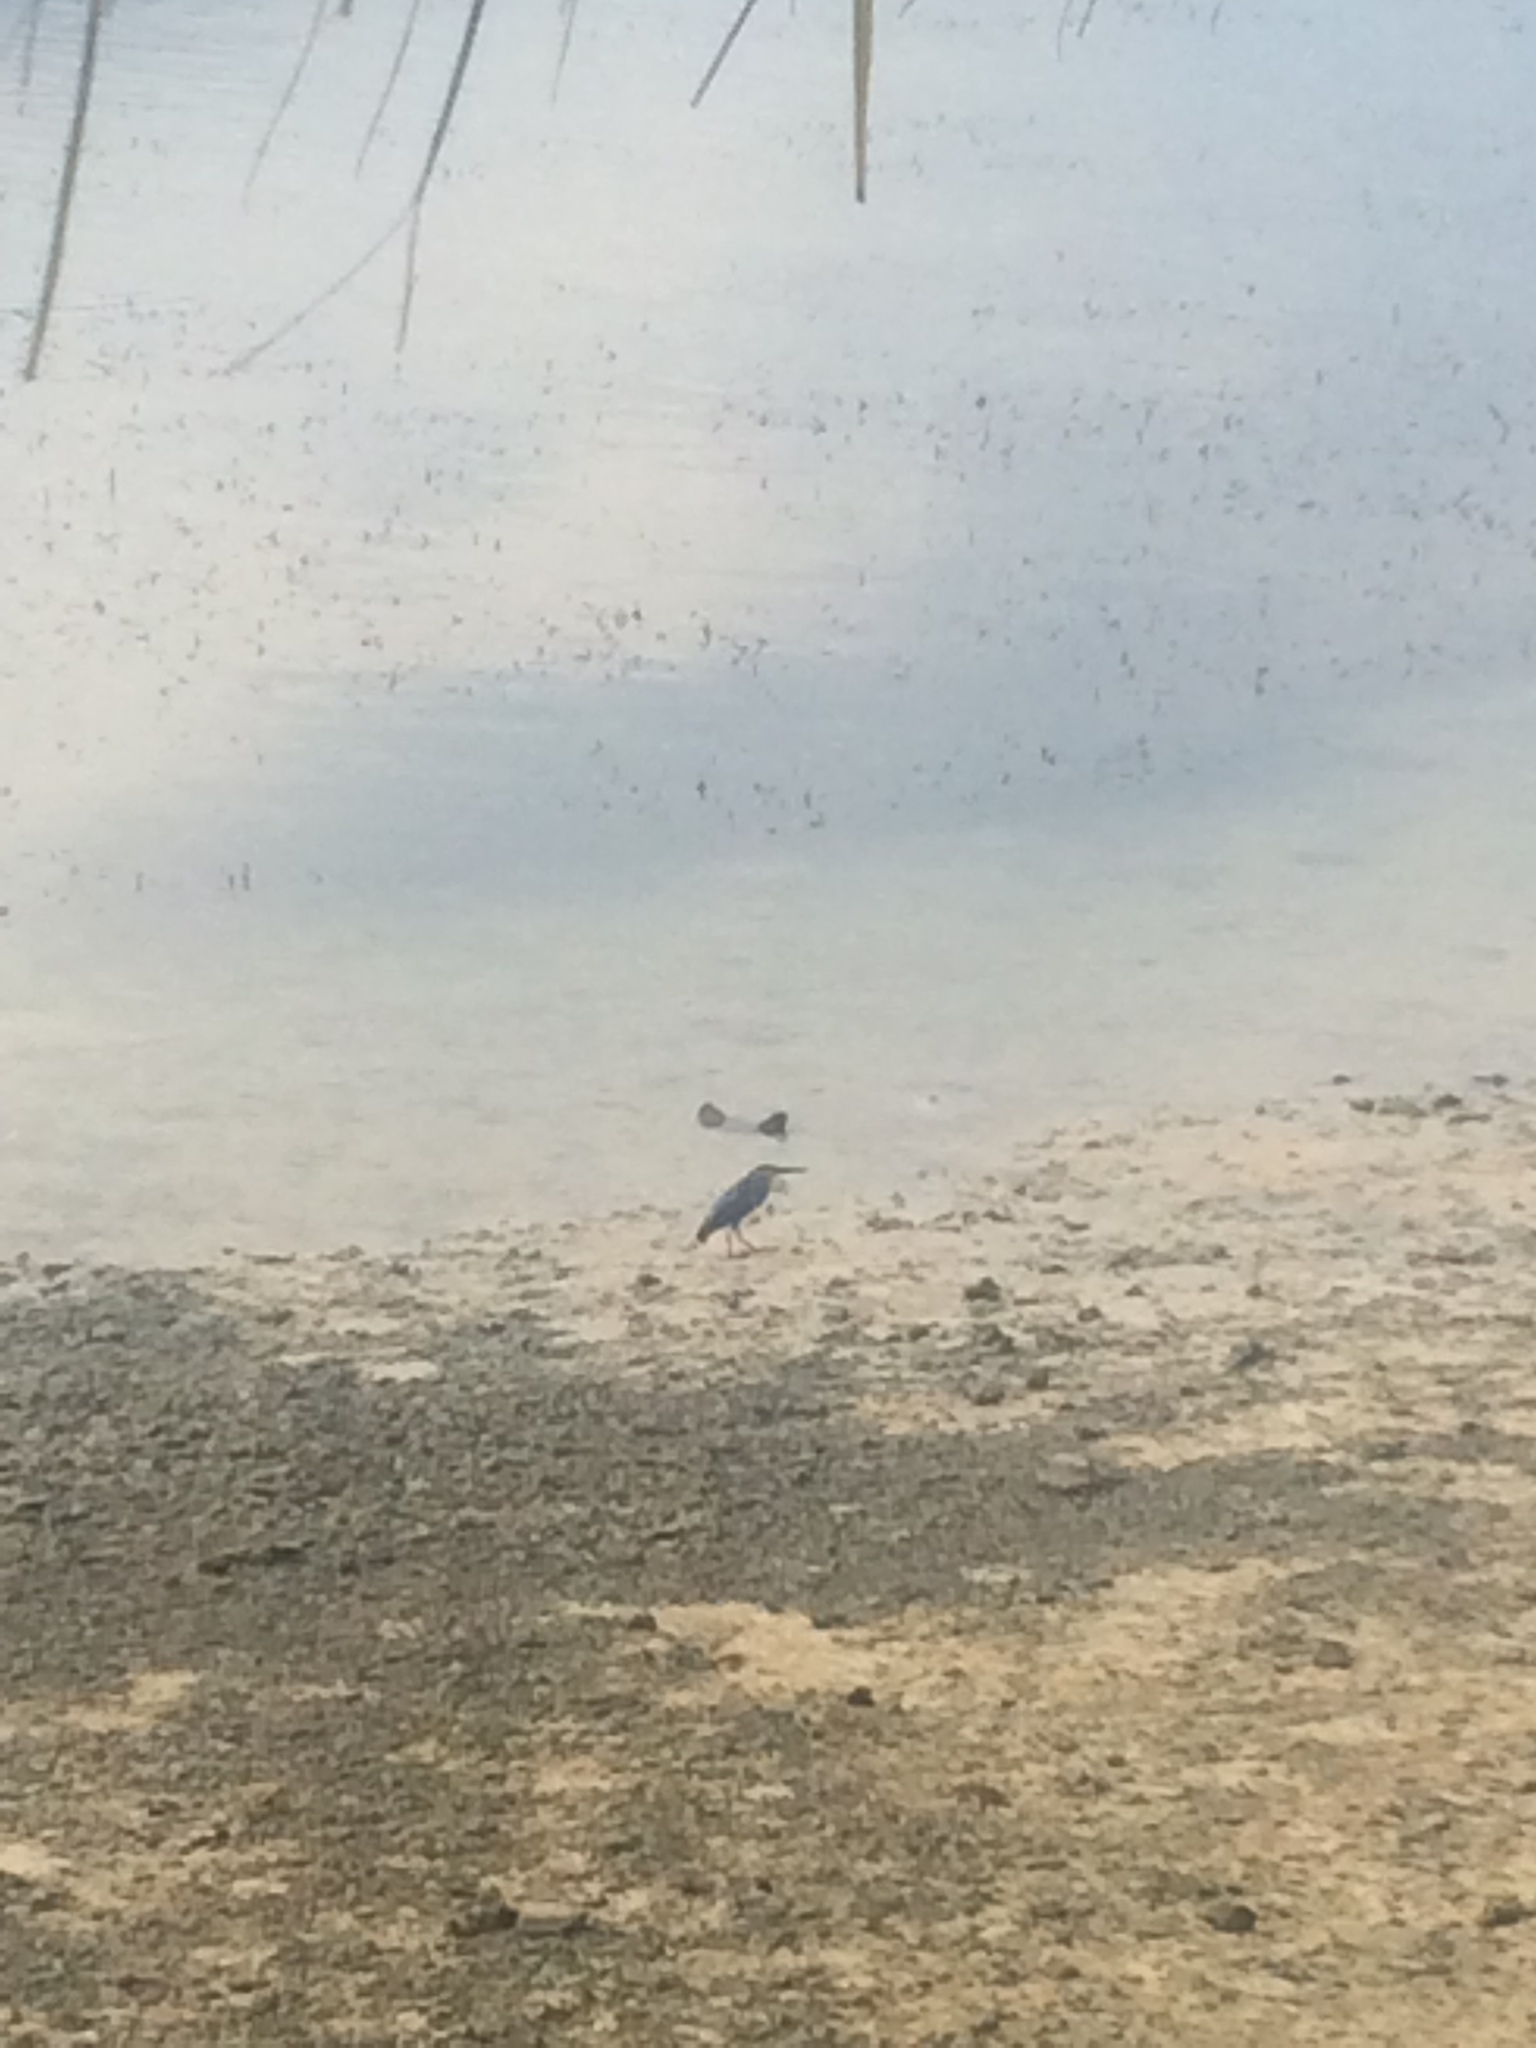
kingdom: Animalia
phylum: Chordata
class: Aves
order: Pelecaniformes
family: Ardeidae
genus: Butorides
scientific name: Butorides striata
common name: Striated heron
